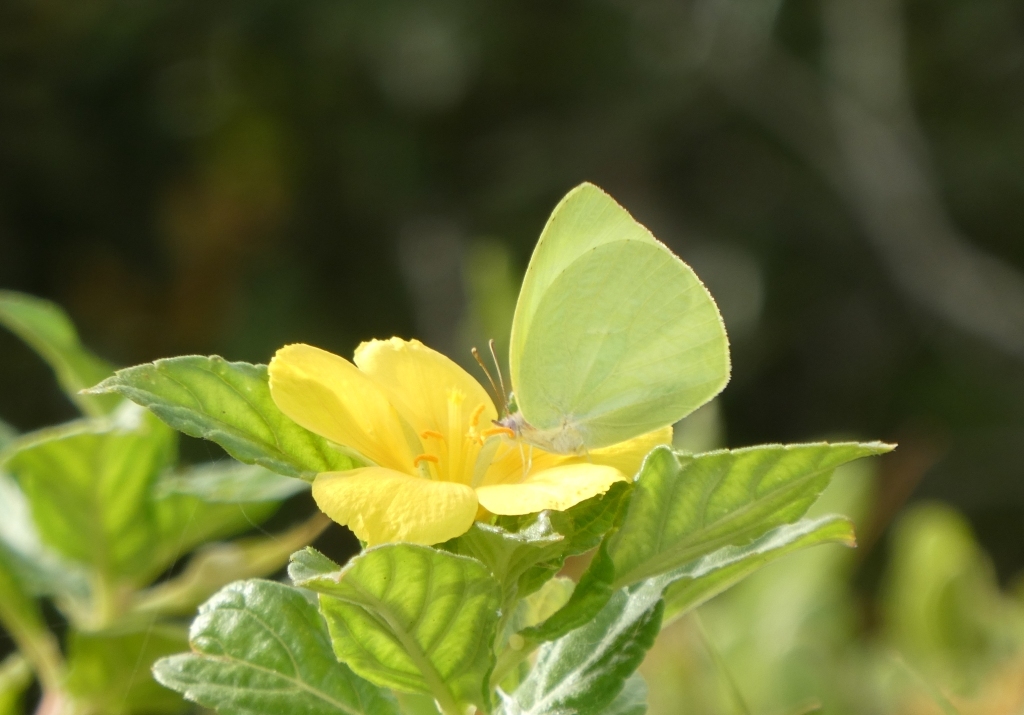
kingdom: Animalia
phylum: Arthropoda
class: Insecta
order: Lepidoptera
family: Pieridae
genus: Kricogonia
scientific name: Kricogonia lyside
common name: Guayacan sulphur,
